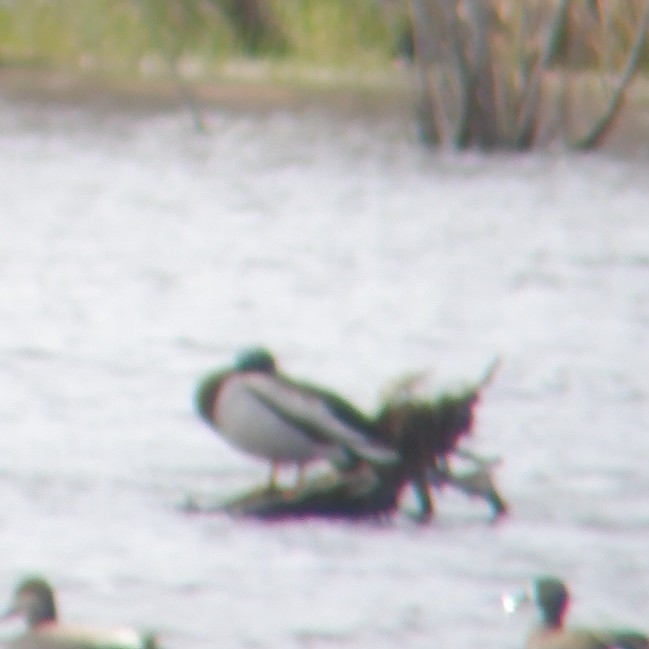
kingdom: Animalia
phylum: Chordata
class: Aves
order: Anseriformes
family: Anatidae
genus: Anas
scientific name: Anas platyrhynchos
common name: Mallard
